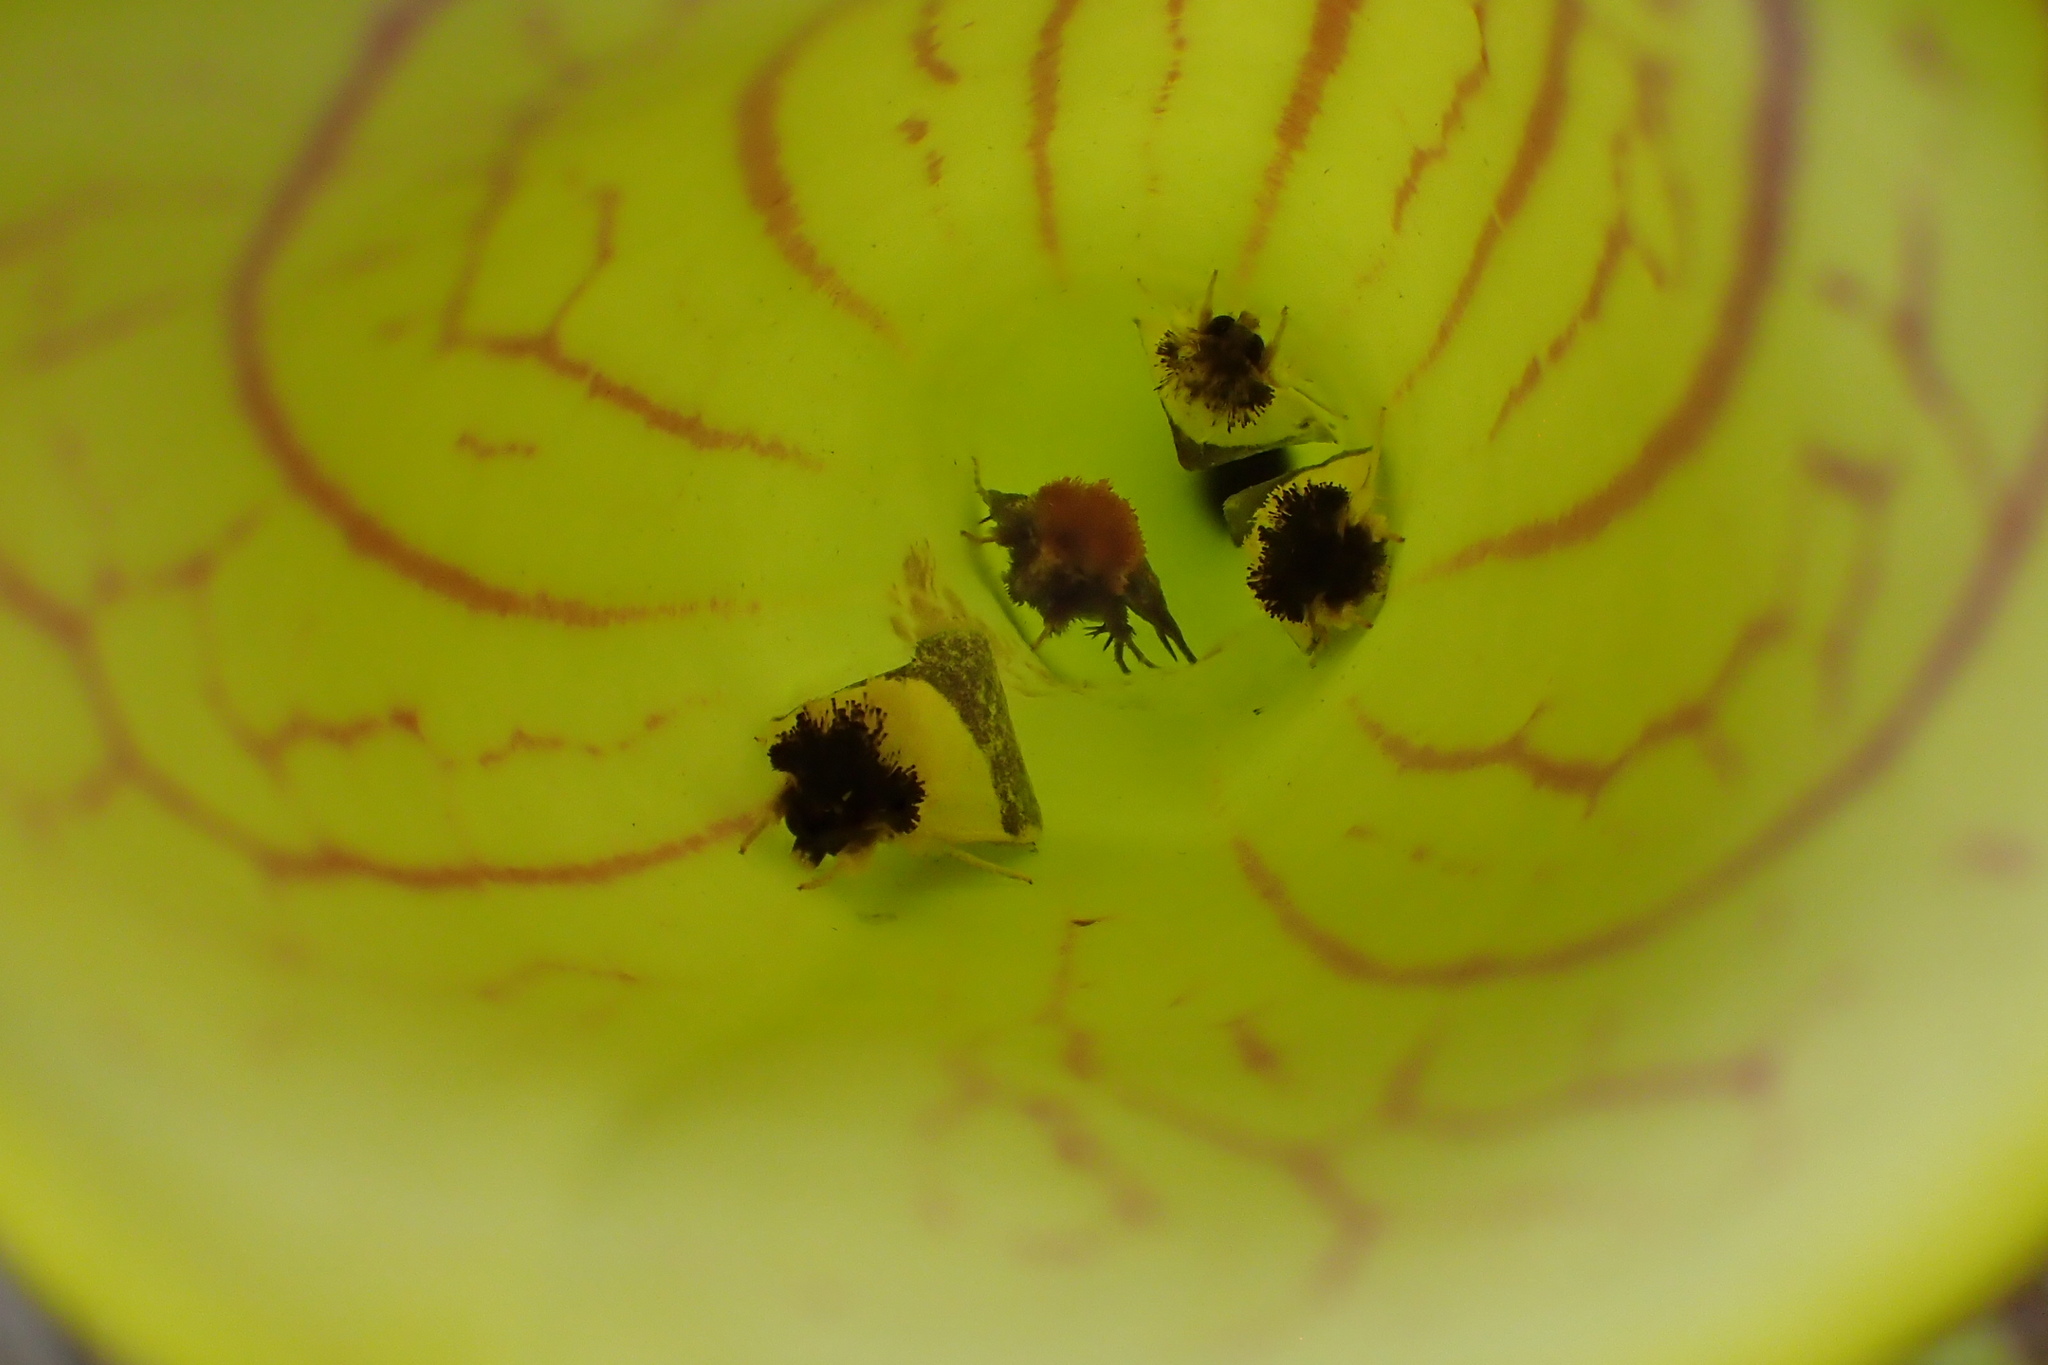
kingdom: Animalia
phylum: Arthropoda
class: Insecta
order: Lepidoptera
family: Noctuidae
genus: Exyra
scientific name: Exyra semicrocea
